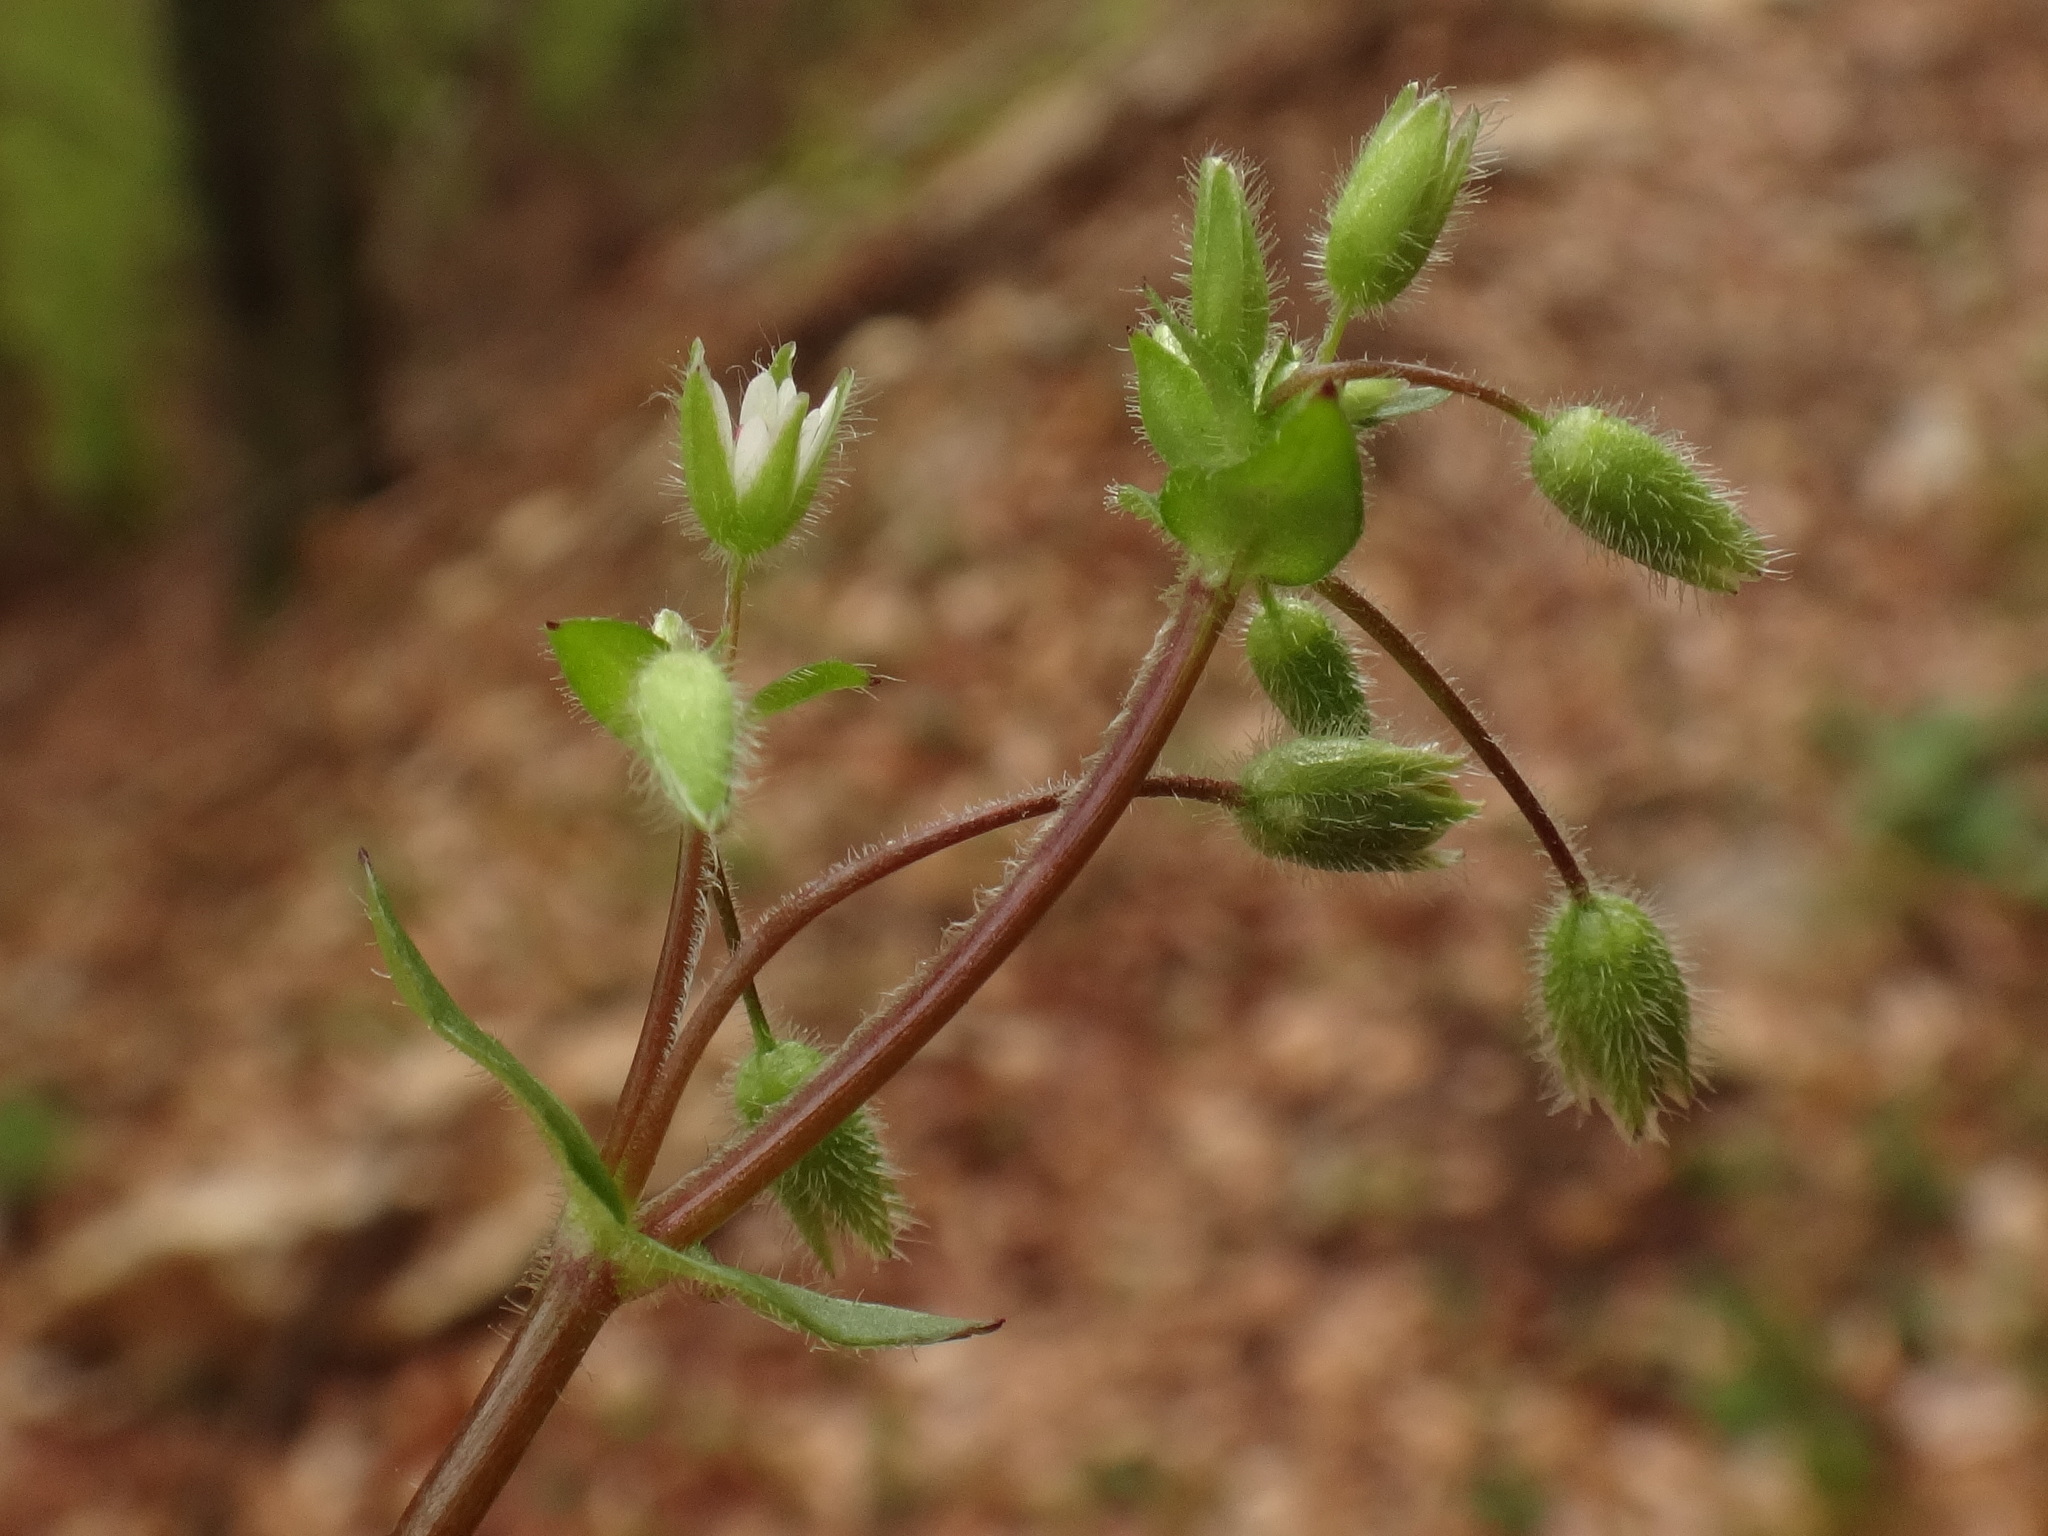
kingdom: Plantae
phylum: Tracheophyta
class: Magnoliopsida
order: Caryophyllales
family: Caryophyllaceae
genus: Stellaria
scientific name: Stellaria media
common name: Common chickweed
